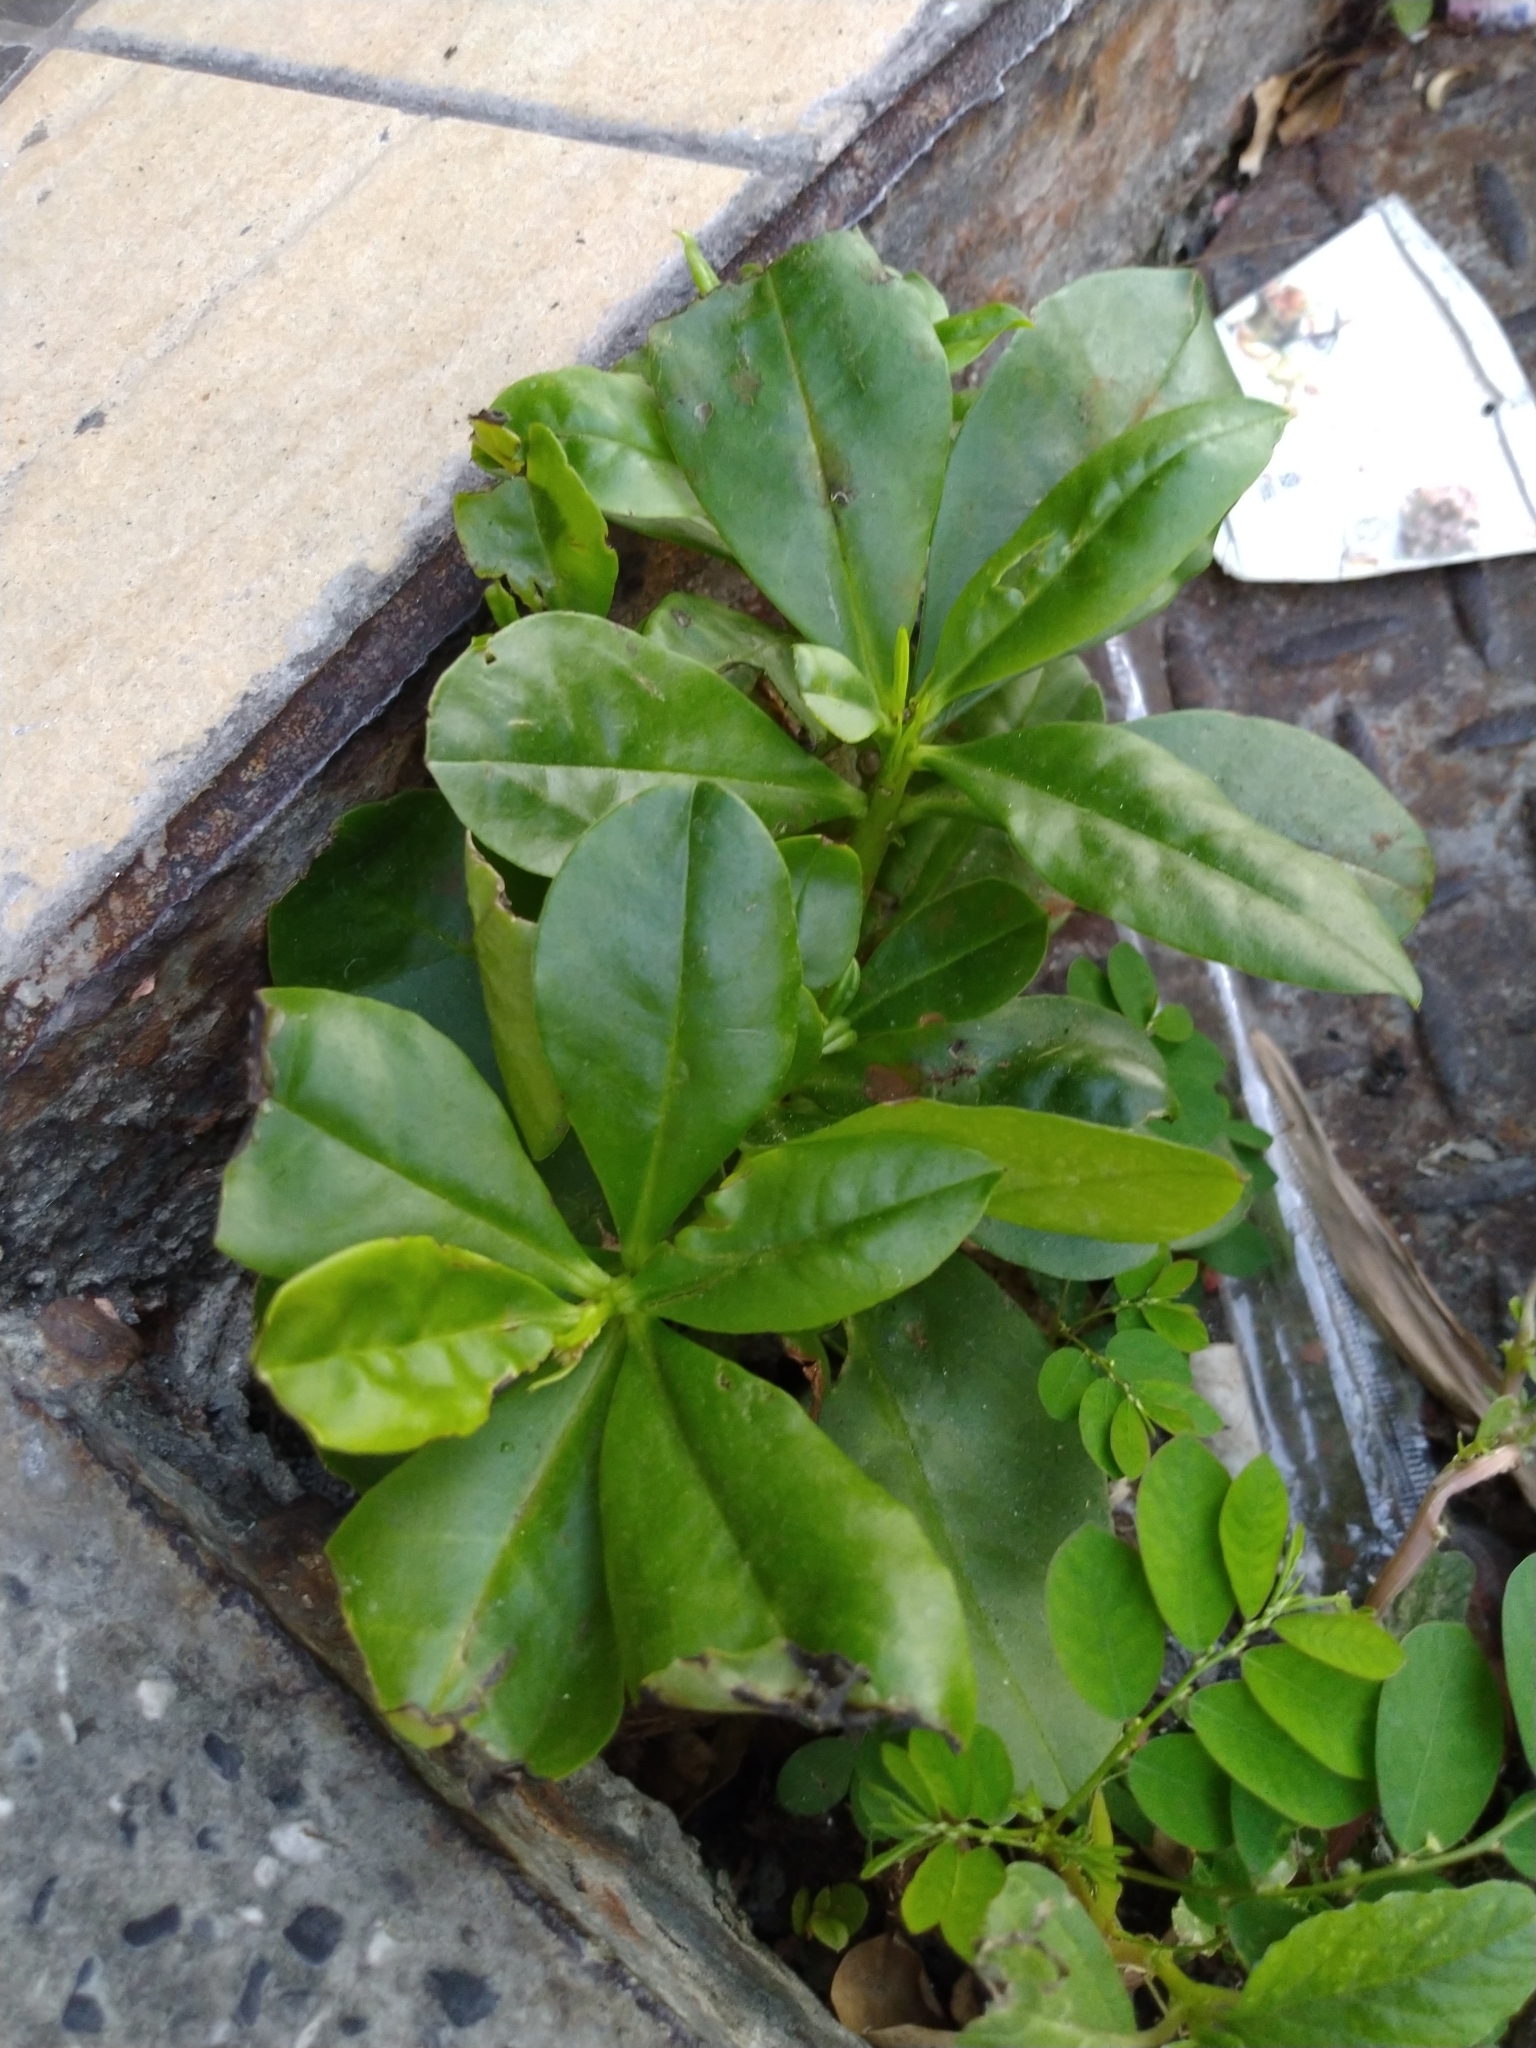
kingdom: Plantae
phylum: Tracheophyta
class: Magnoliopsida
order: Caryophyllales
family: Talinaceae
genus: Talinum
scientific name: Talinum paniculatum
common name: Jewels of opar
